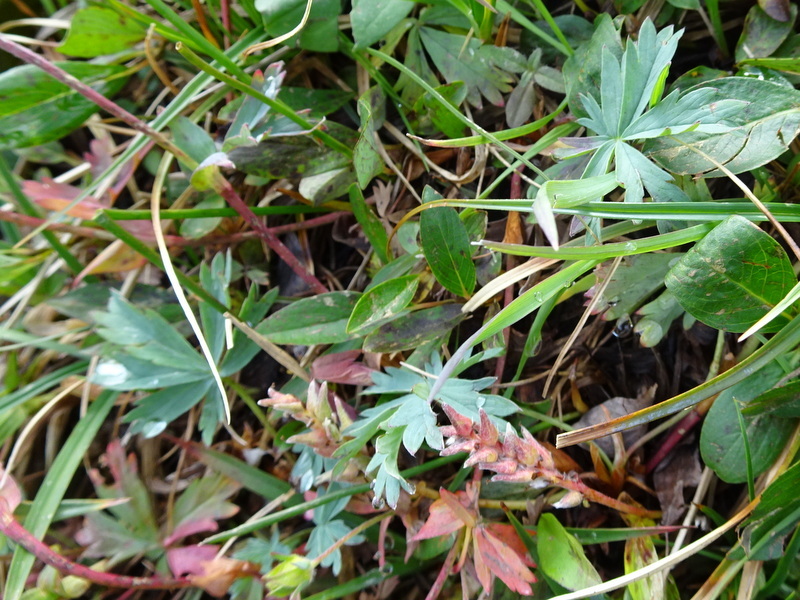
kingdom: Plantae
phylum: Tracheophyta
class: Magnoliopsida
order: Rosales
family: Rosaceae
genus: Potentilla
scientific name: Potentilla glaucophylla
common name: Blue-leaved cinquefoil
